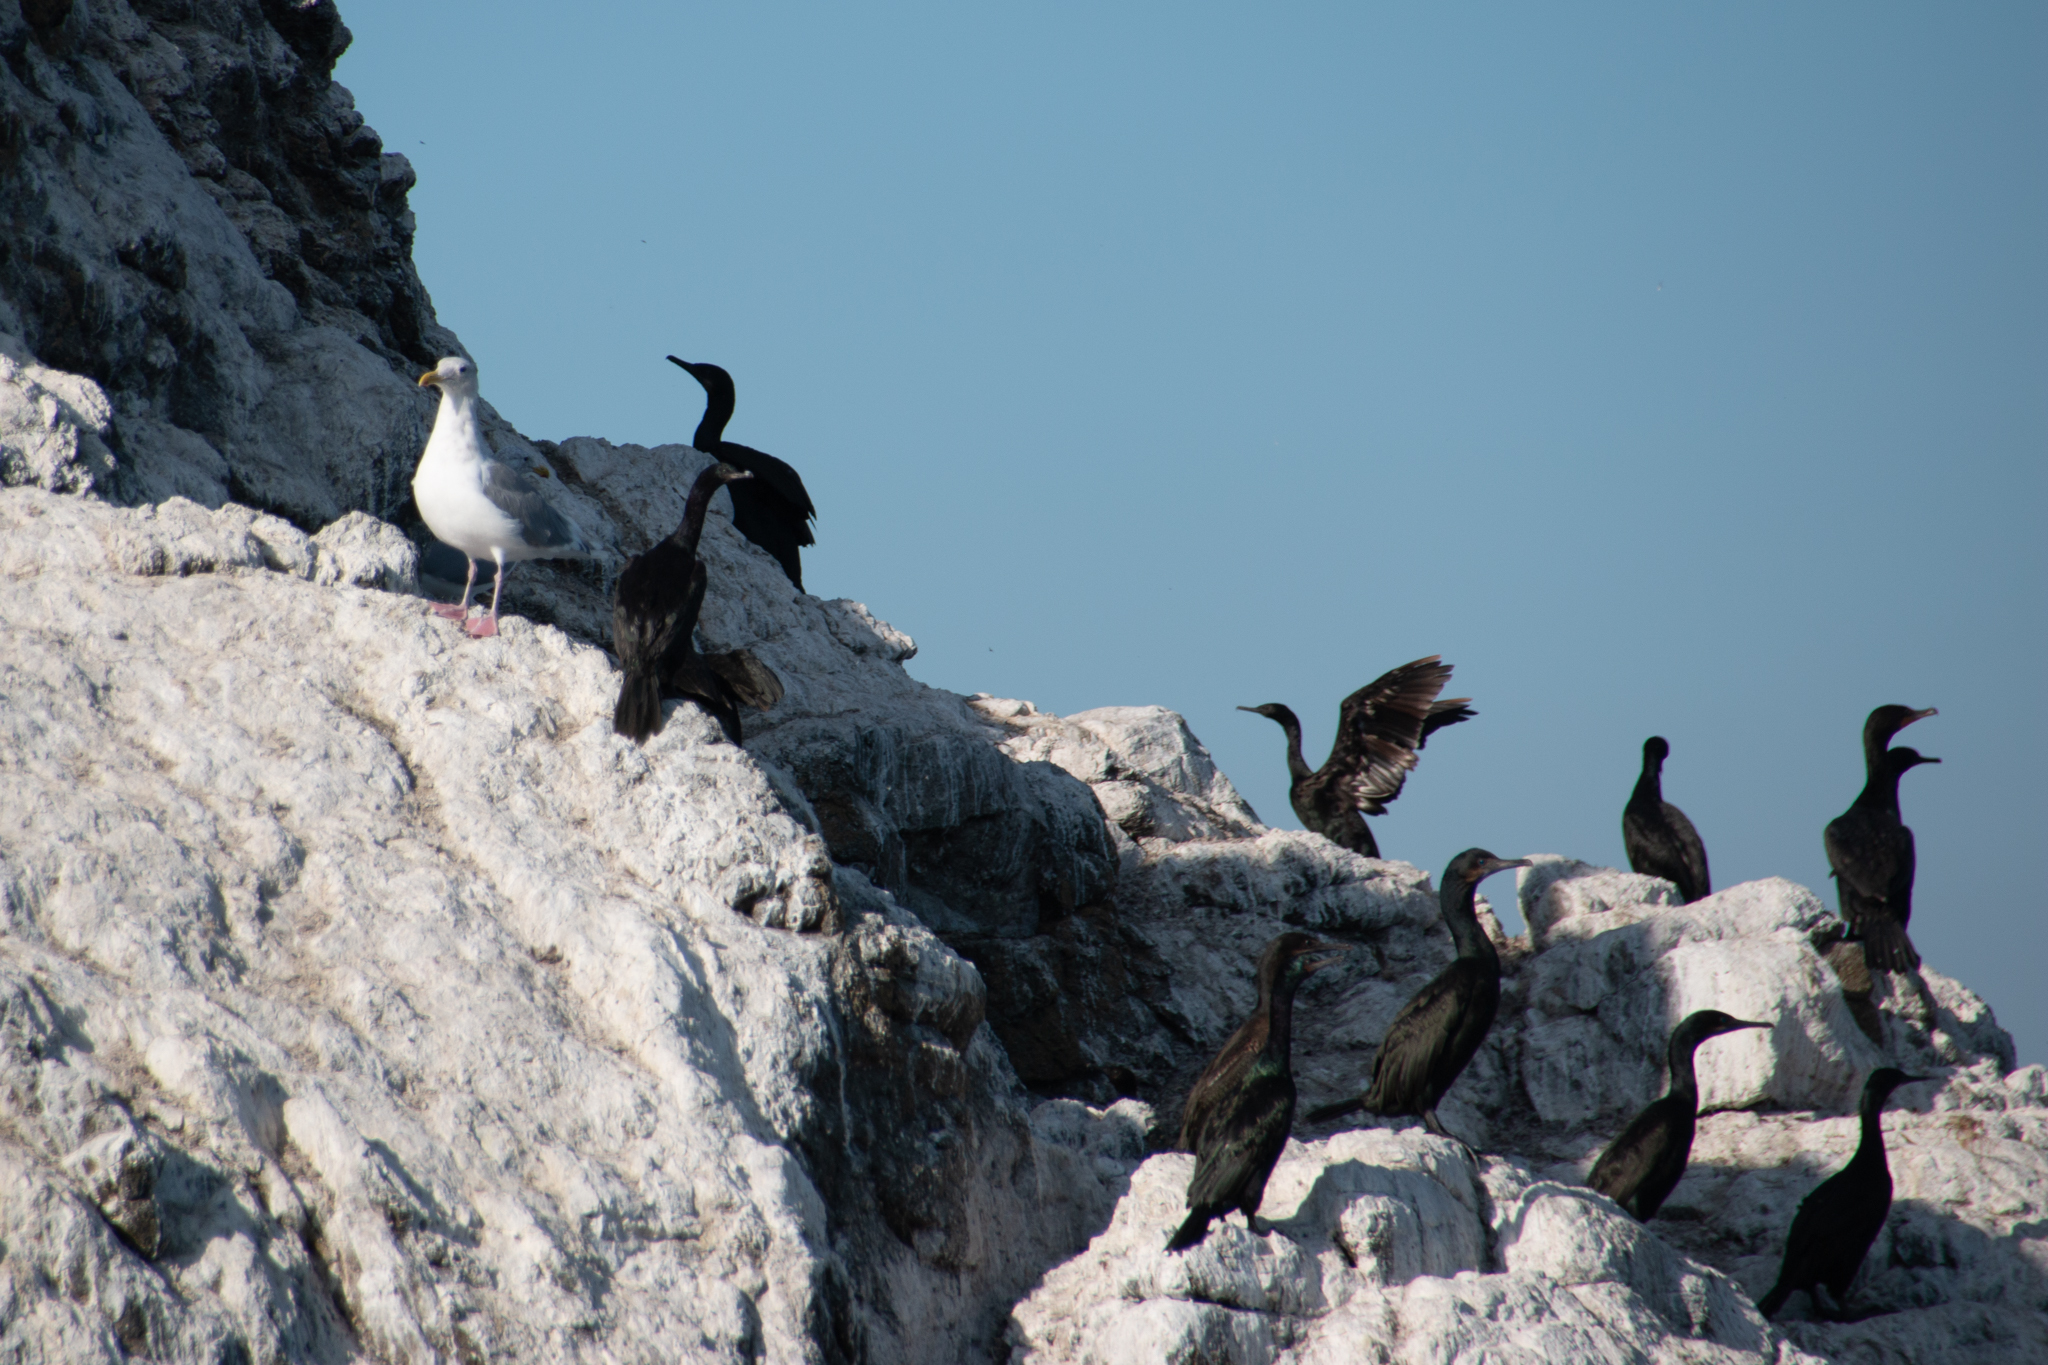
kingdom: Animalia
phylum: Chordata
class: Aves
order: Suliformes
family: Phalacrocoracidae
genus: Urile
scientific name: Urile penicillatus
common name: Brandt's cormorant
